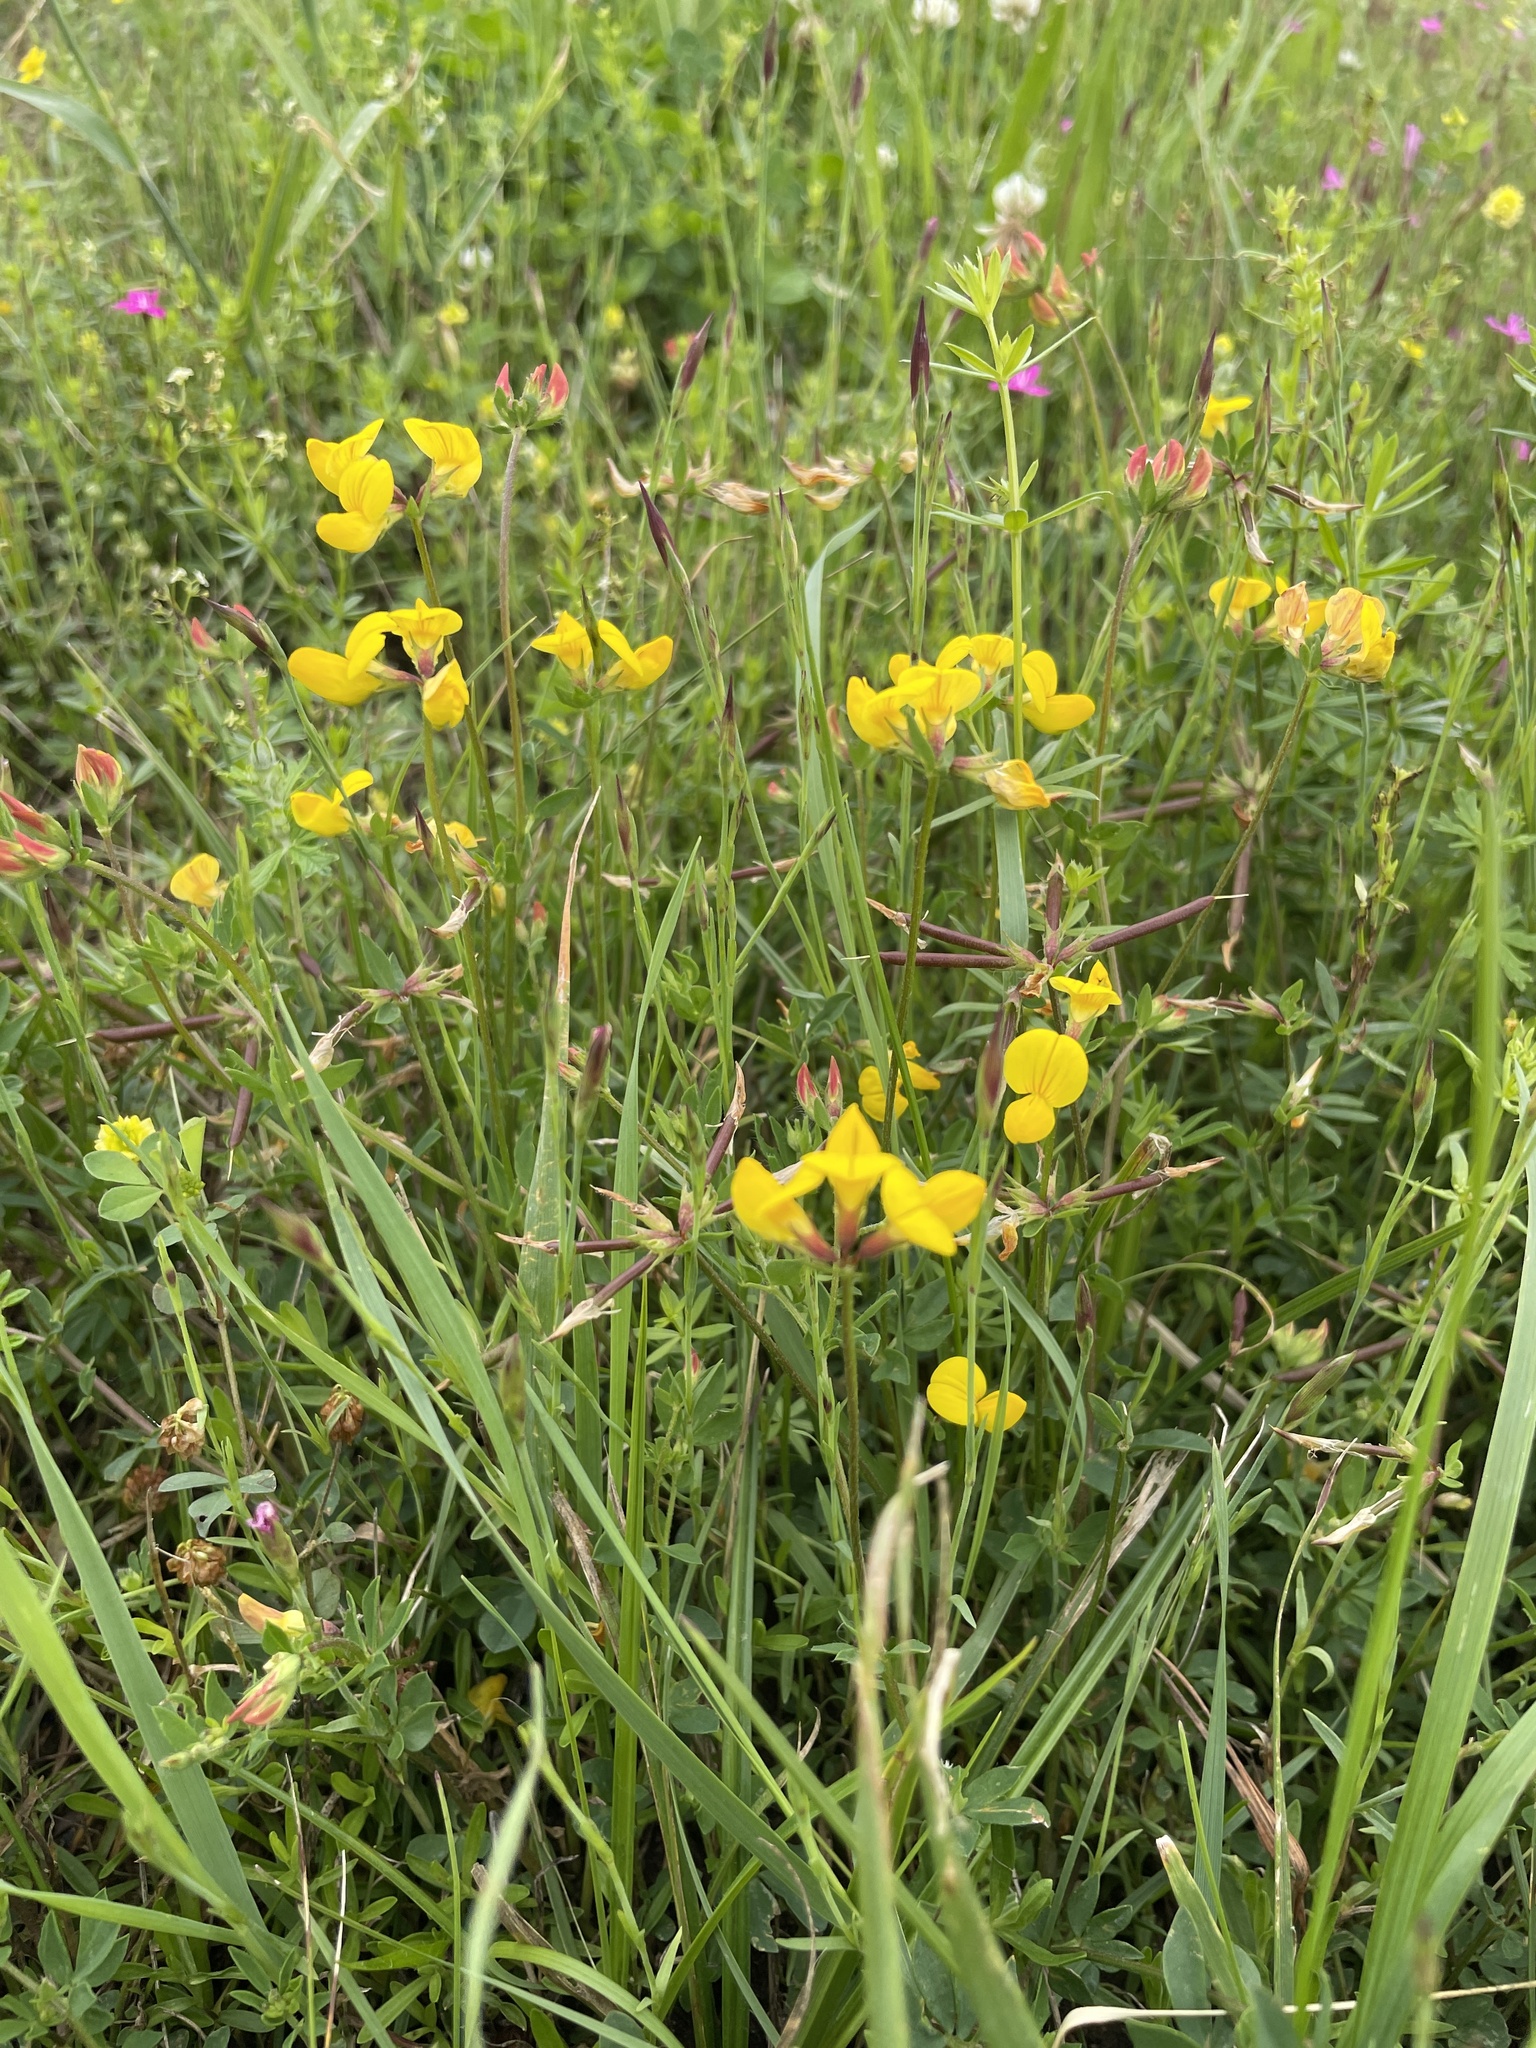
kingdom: Plantae
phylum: Tracheophyta
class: Magnoliopsida
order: Fabales
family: Fabaceae
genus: Lotus
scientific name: Lotus corniculatus
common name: Common bird's-foot-trefoil
